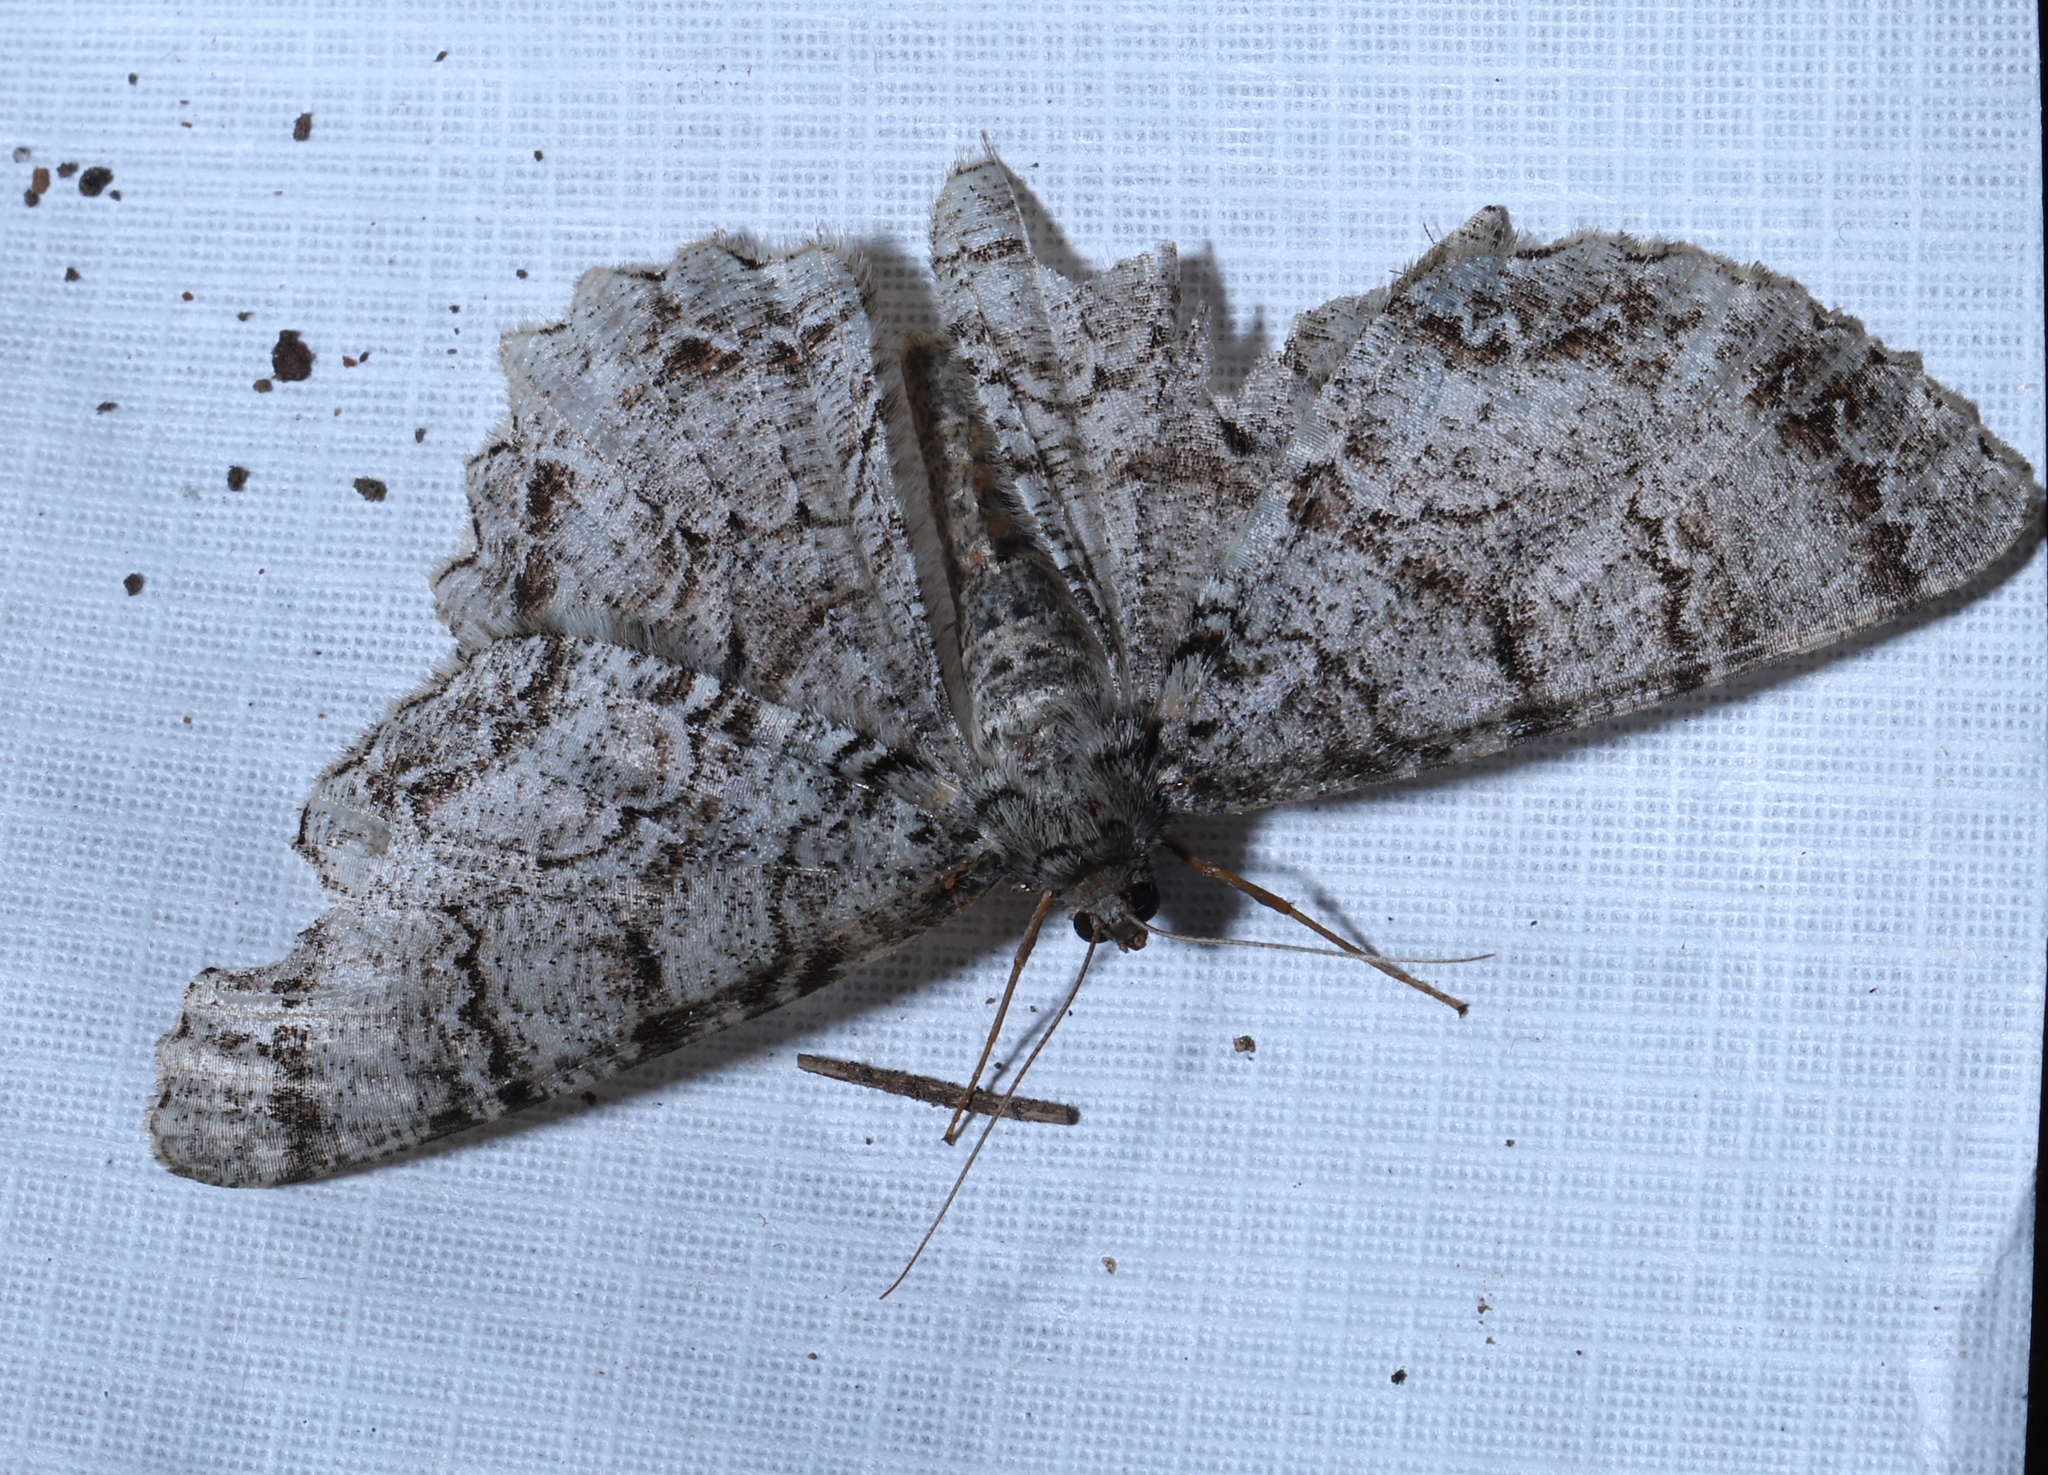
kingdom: Animalia
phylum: Arthropoda
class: Insecta
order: Lepidoptera
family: Geometridae
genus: Epimecis
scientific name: Epimecis hortaria
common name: Tulip-tree beauty
